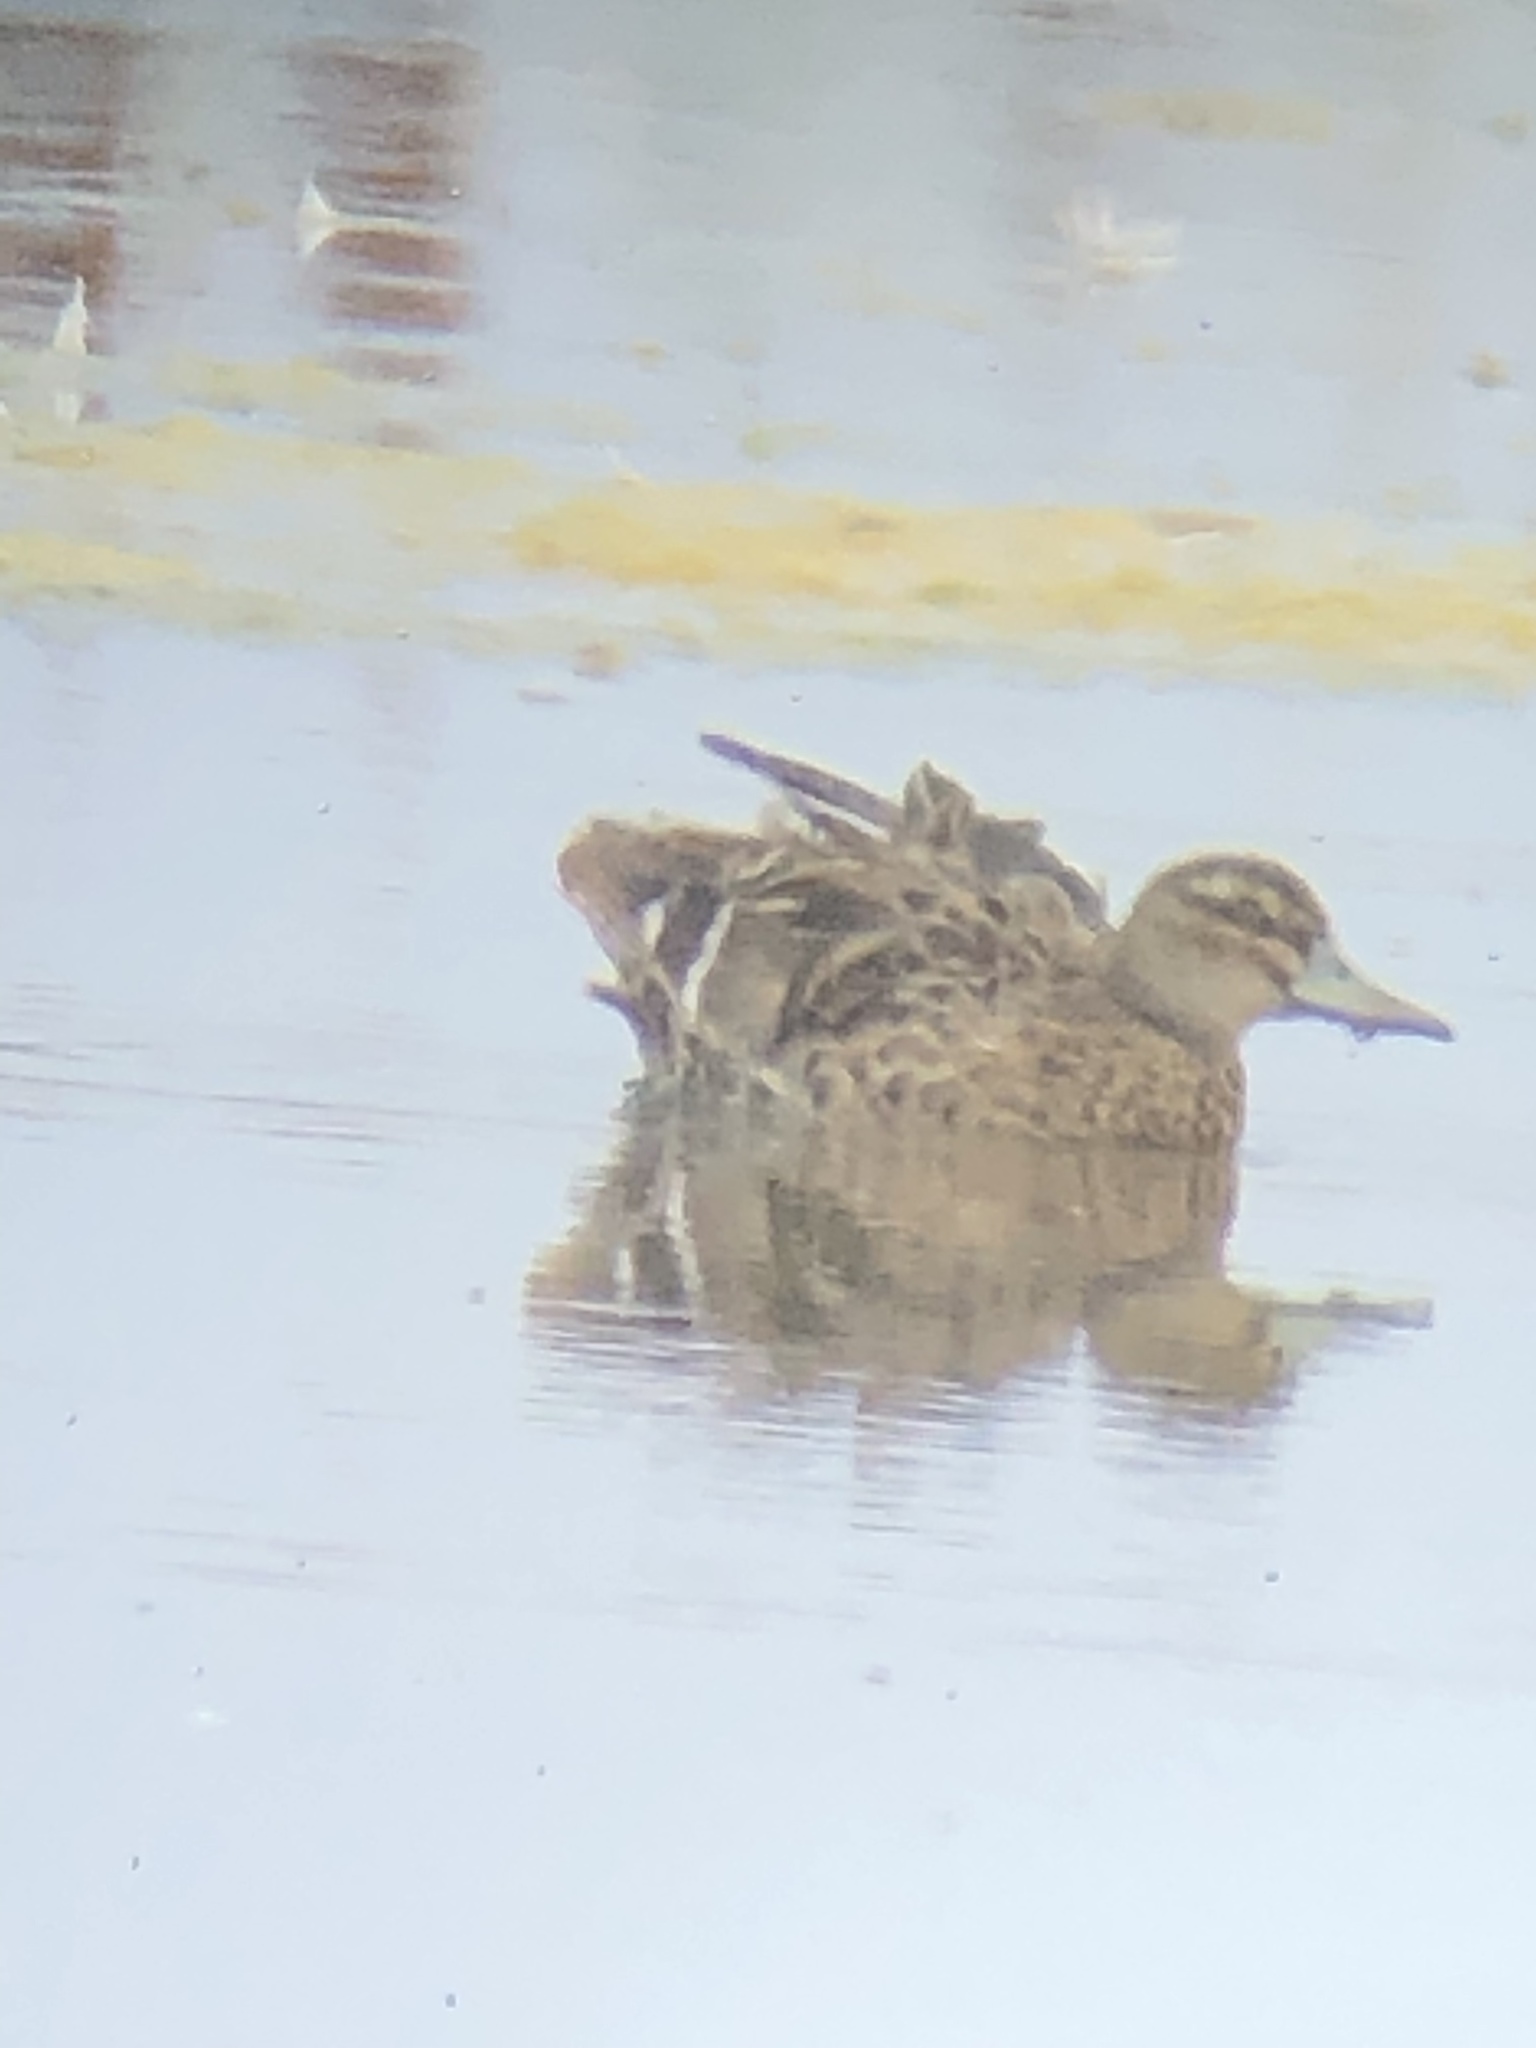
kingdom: Animalia
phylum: Chordata
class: Aves
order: Anseriformes
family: Anatidae
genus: Spatula
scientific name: Spatula querquedula
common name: Garganey
